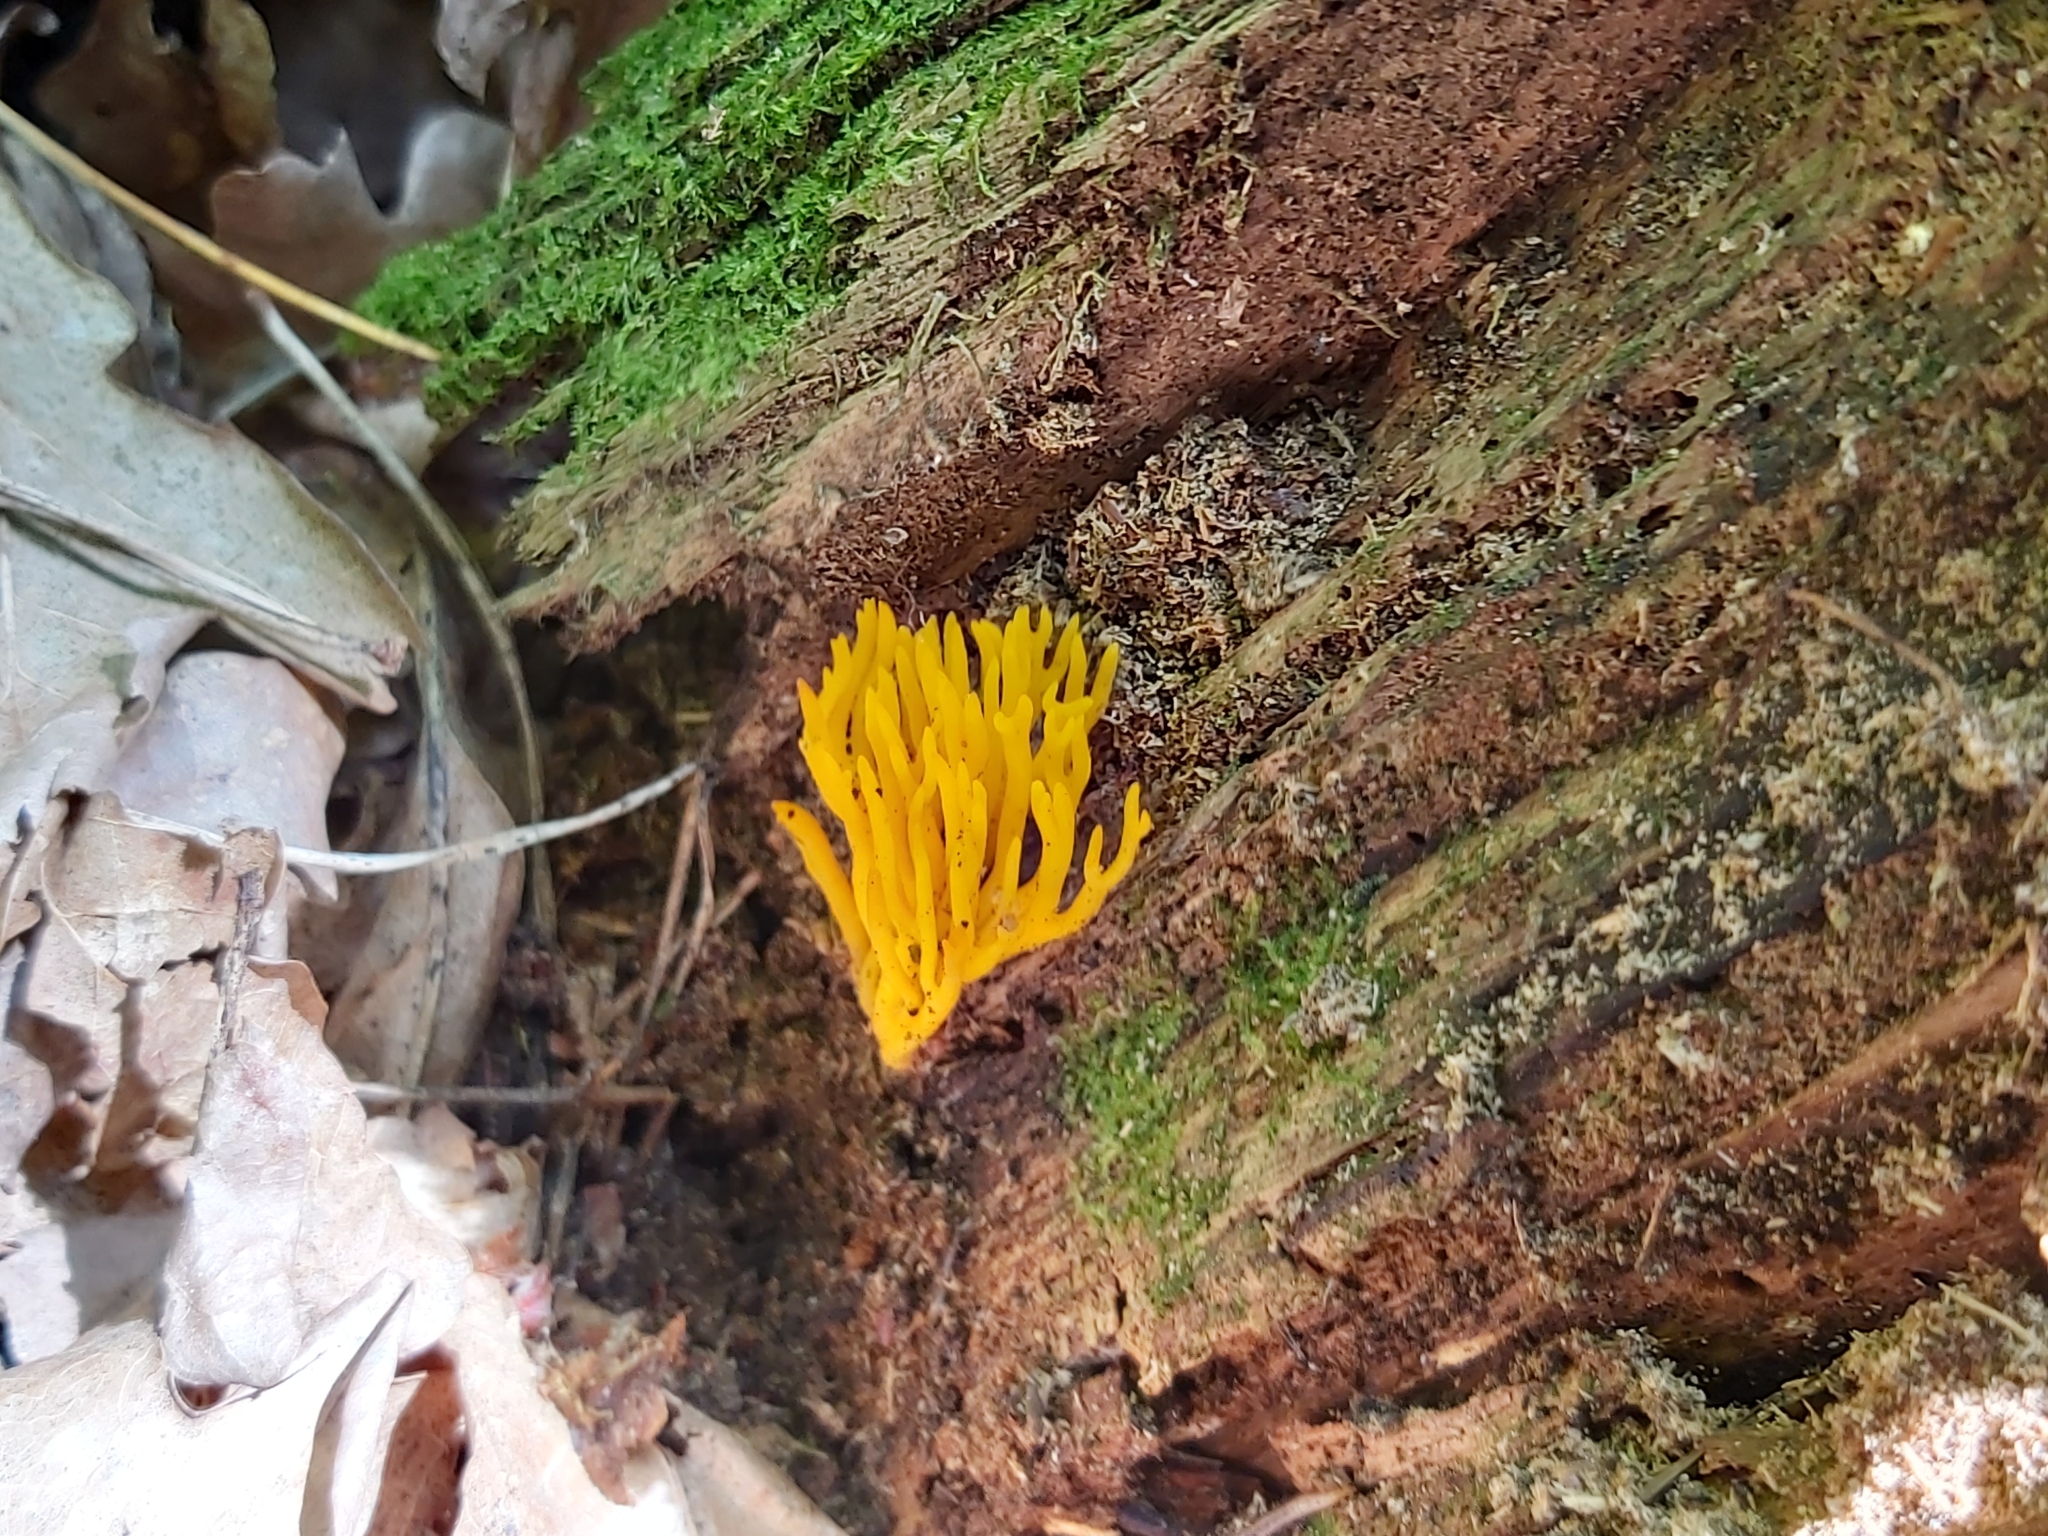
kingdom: Fungi
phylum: Basidiomycota
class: Dacrymycetes
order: Dacrymycetales
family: Dacrymycetaceae
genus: Calocera
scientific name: Calocera viscosa
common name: Yellow stagshorn
